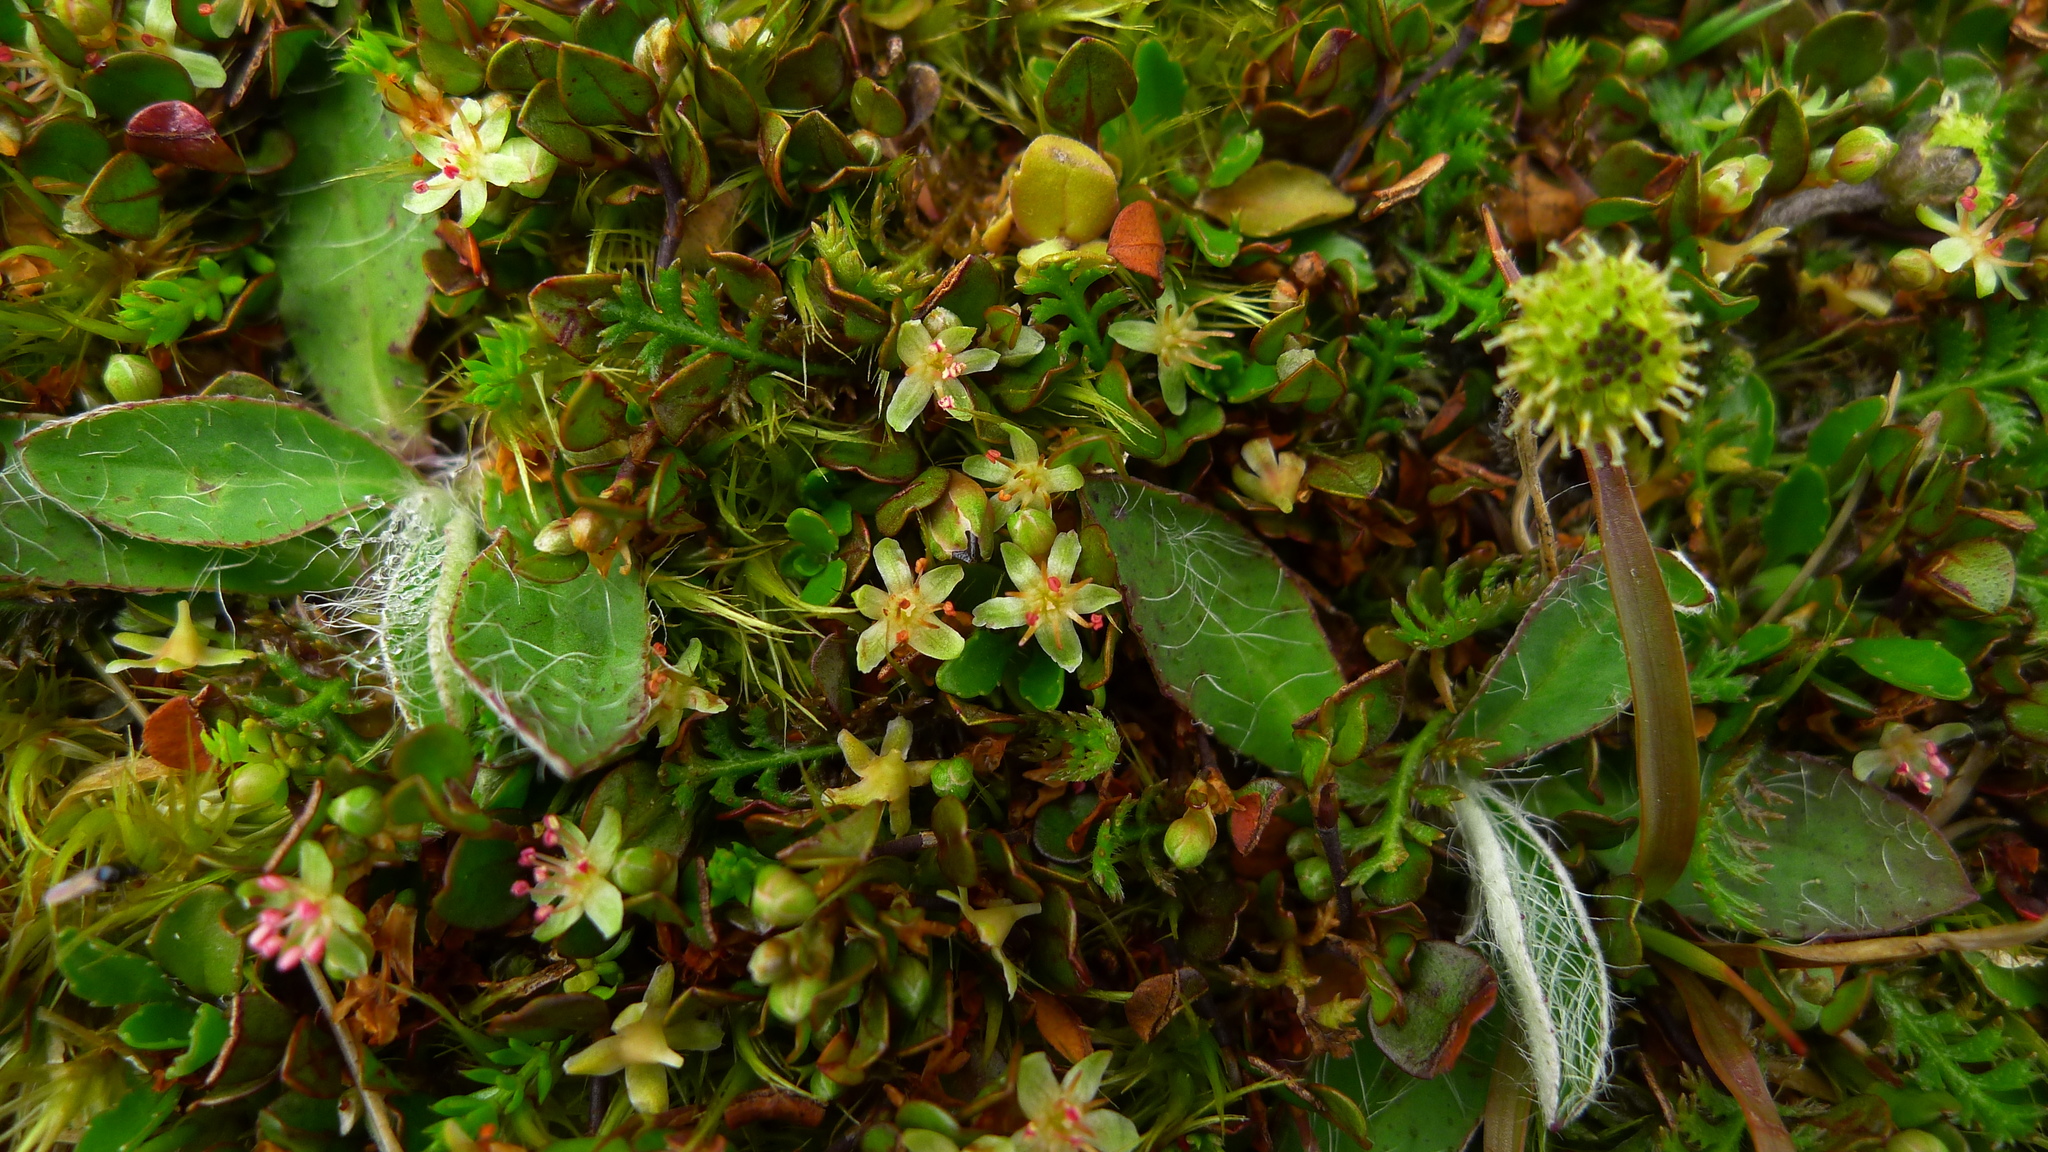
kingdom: Plantae
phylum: Tracheophyta
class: Magnoliopsida
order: Caryophyllales
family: Polygonaceae
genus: Muehlenbeckia
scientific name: Muehlenbeckia axillaris
